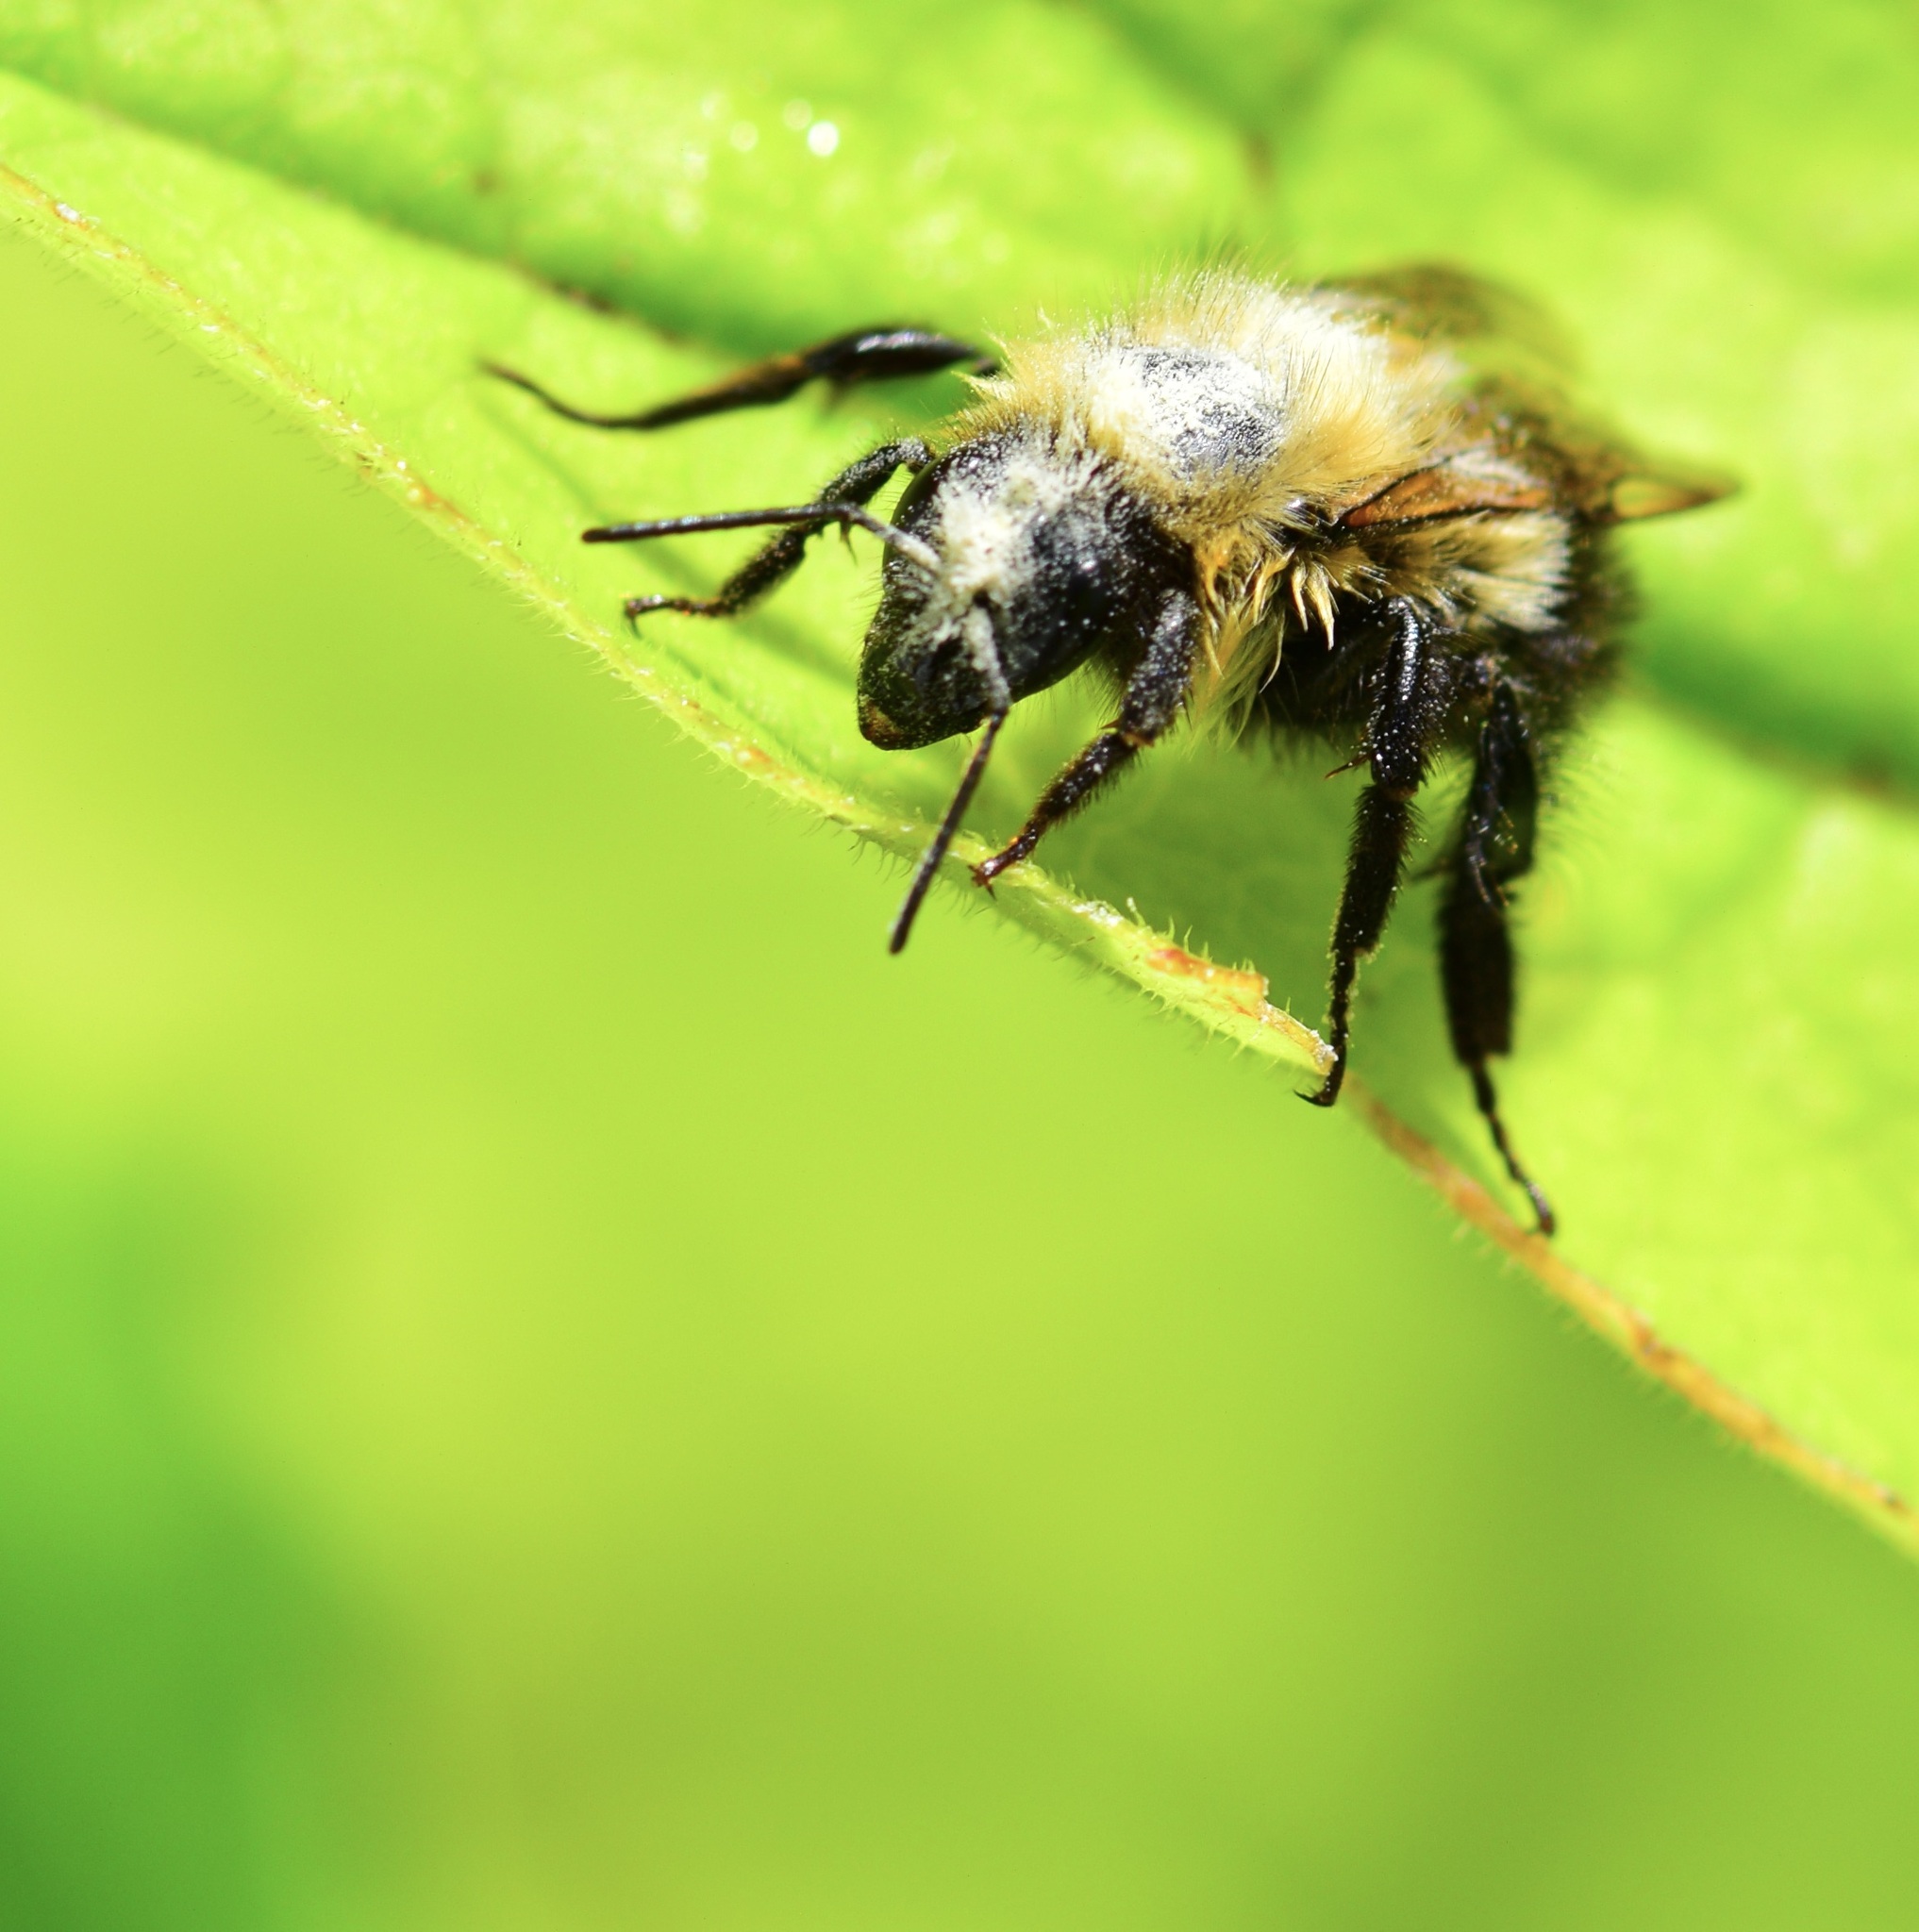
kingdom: Animalia
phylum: Arthropoda
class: Insecta
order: Hymenoptera
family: Apidae
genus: Pyrobombus
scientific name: Pyrobombus
